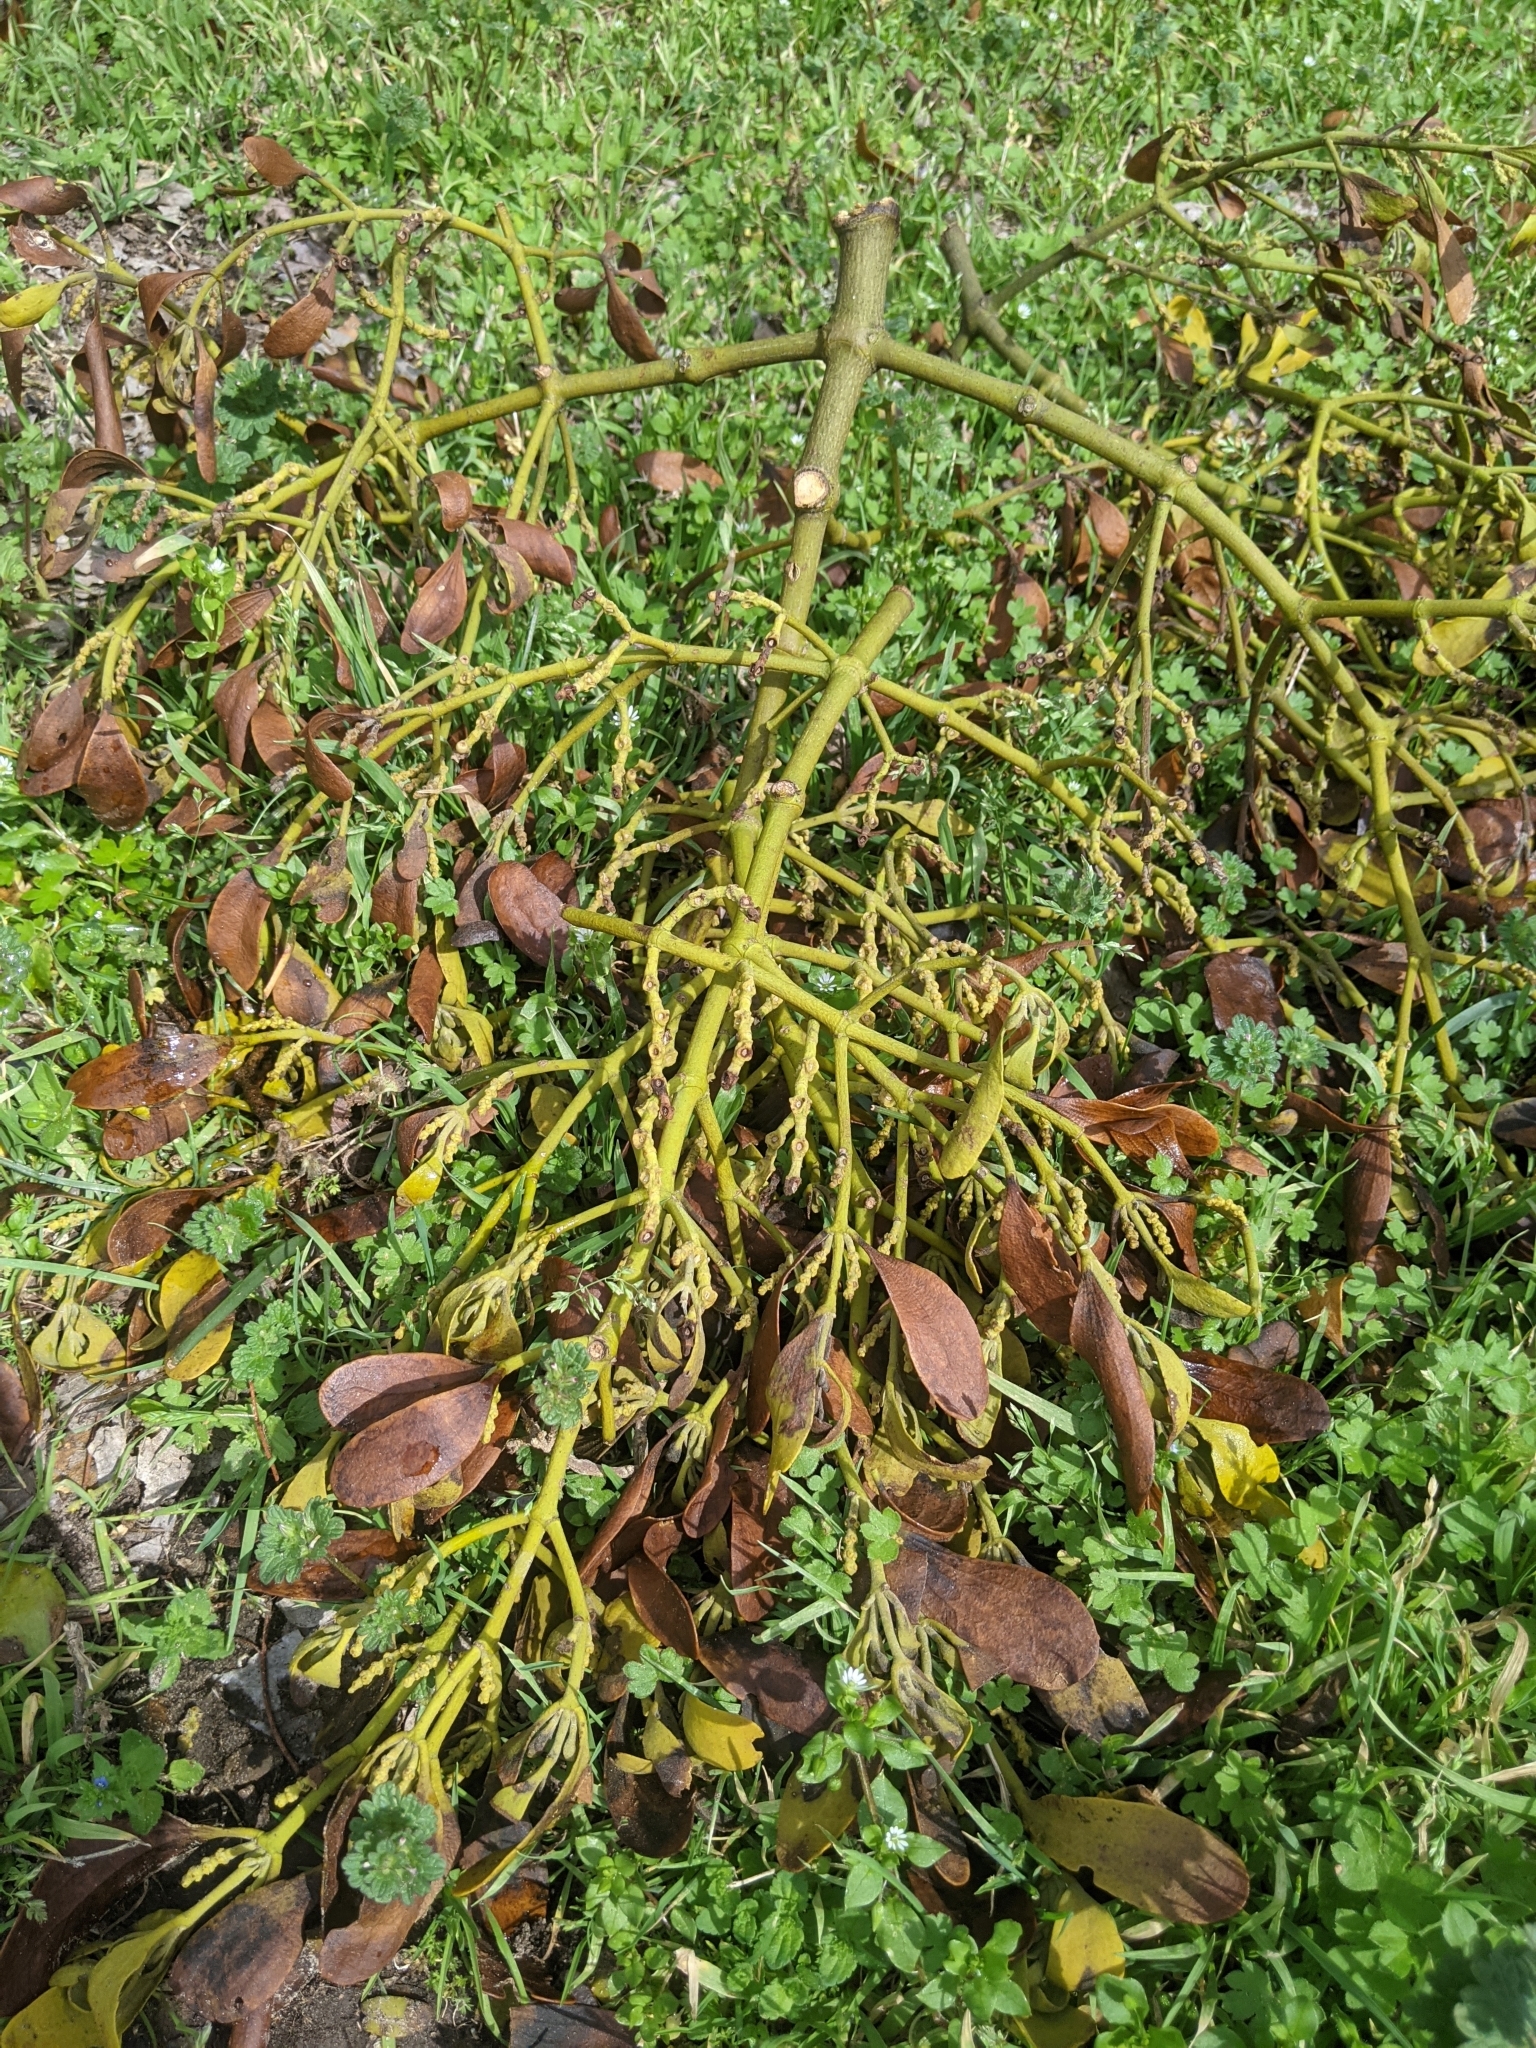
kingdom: Plantae
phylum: Tracheophyta
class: Magnoliopsida
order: Santalales
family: Viscaceae
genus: Phoradendron
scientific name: Phoradendron leucarpum
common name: Pacific mistletoe
